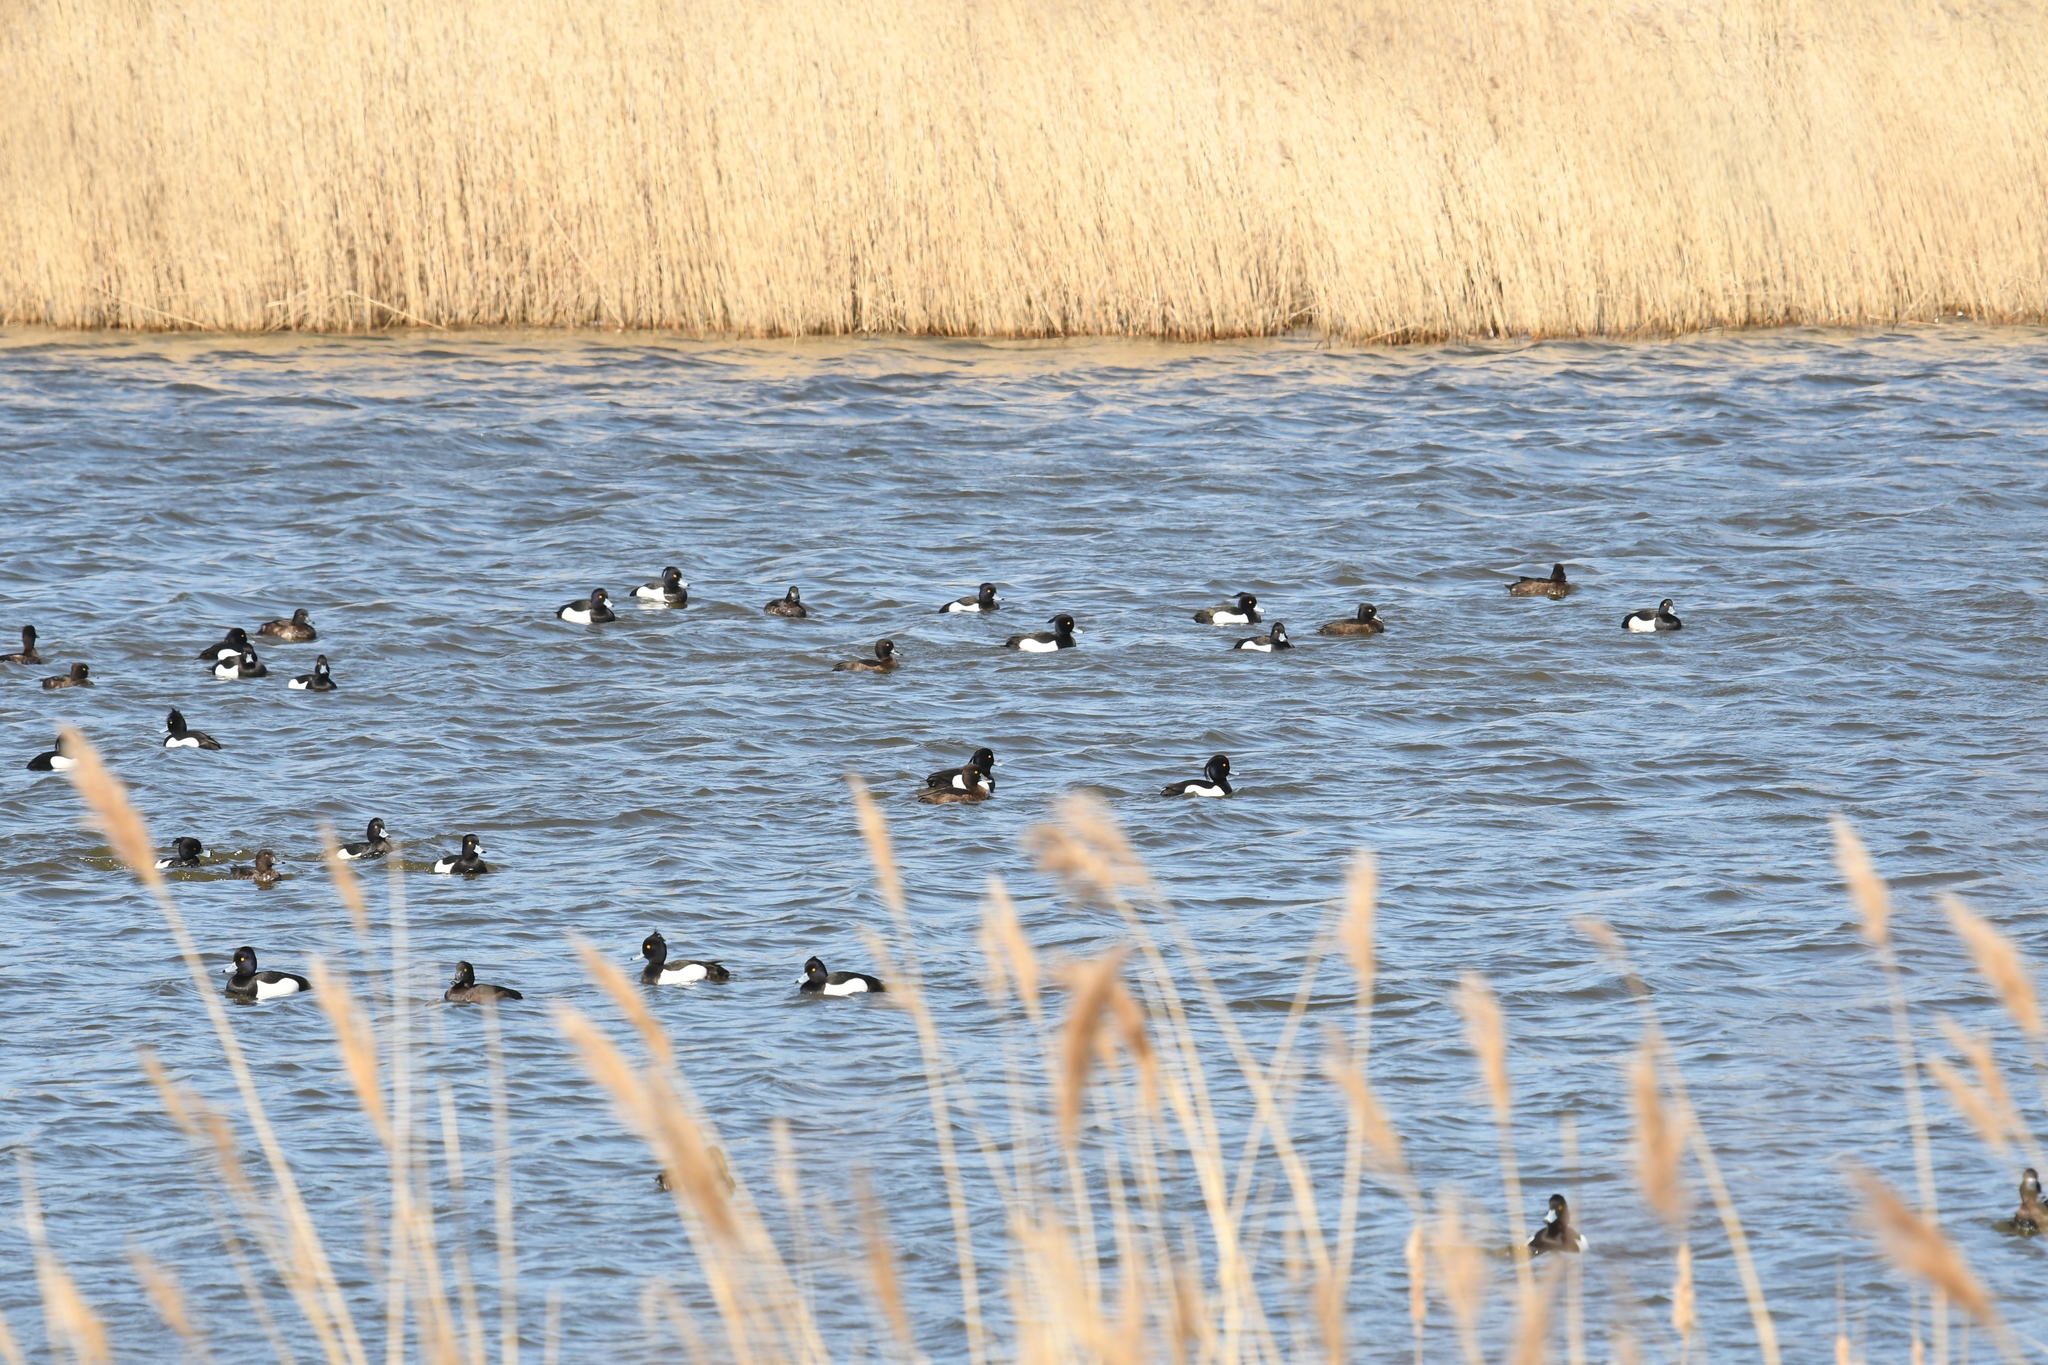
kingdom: Animalia
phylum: Chordata
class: Aves
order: Anseriformes
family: Anatidae
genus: Aythya
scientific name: Aythya fuligula
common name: Tufted duck
